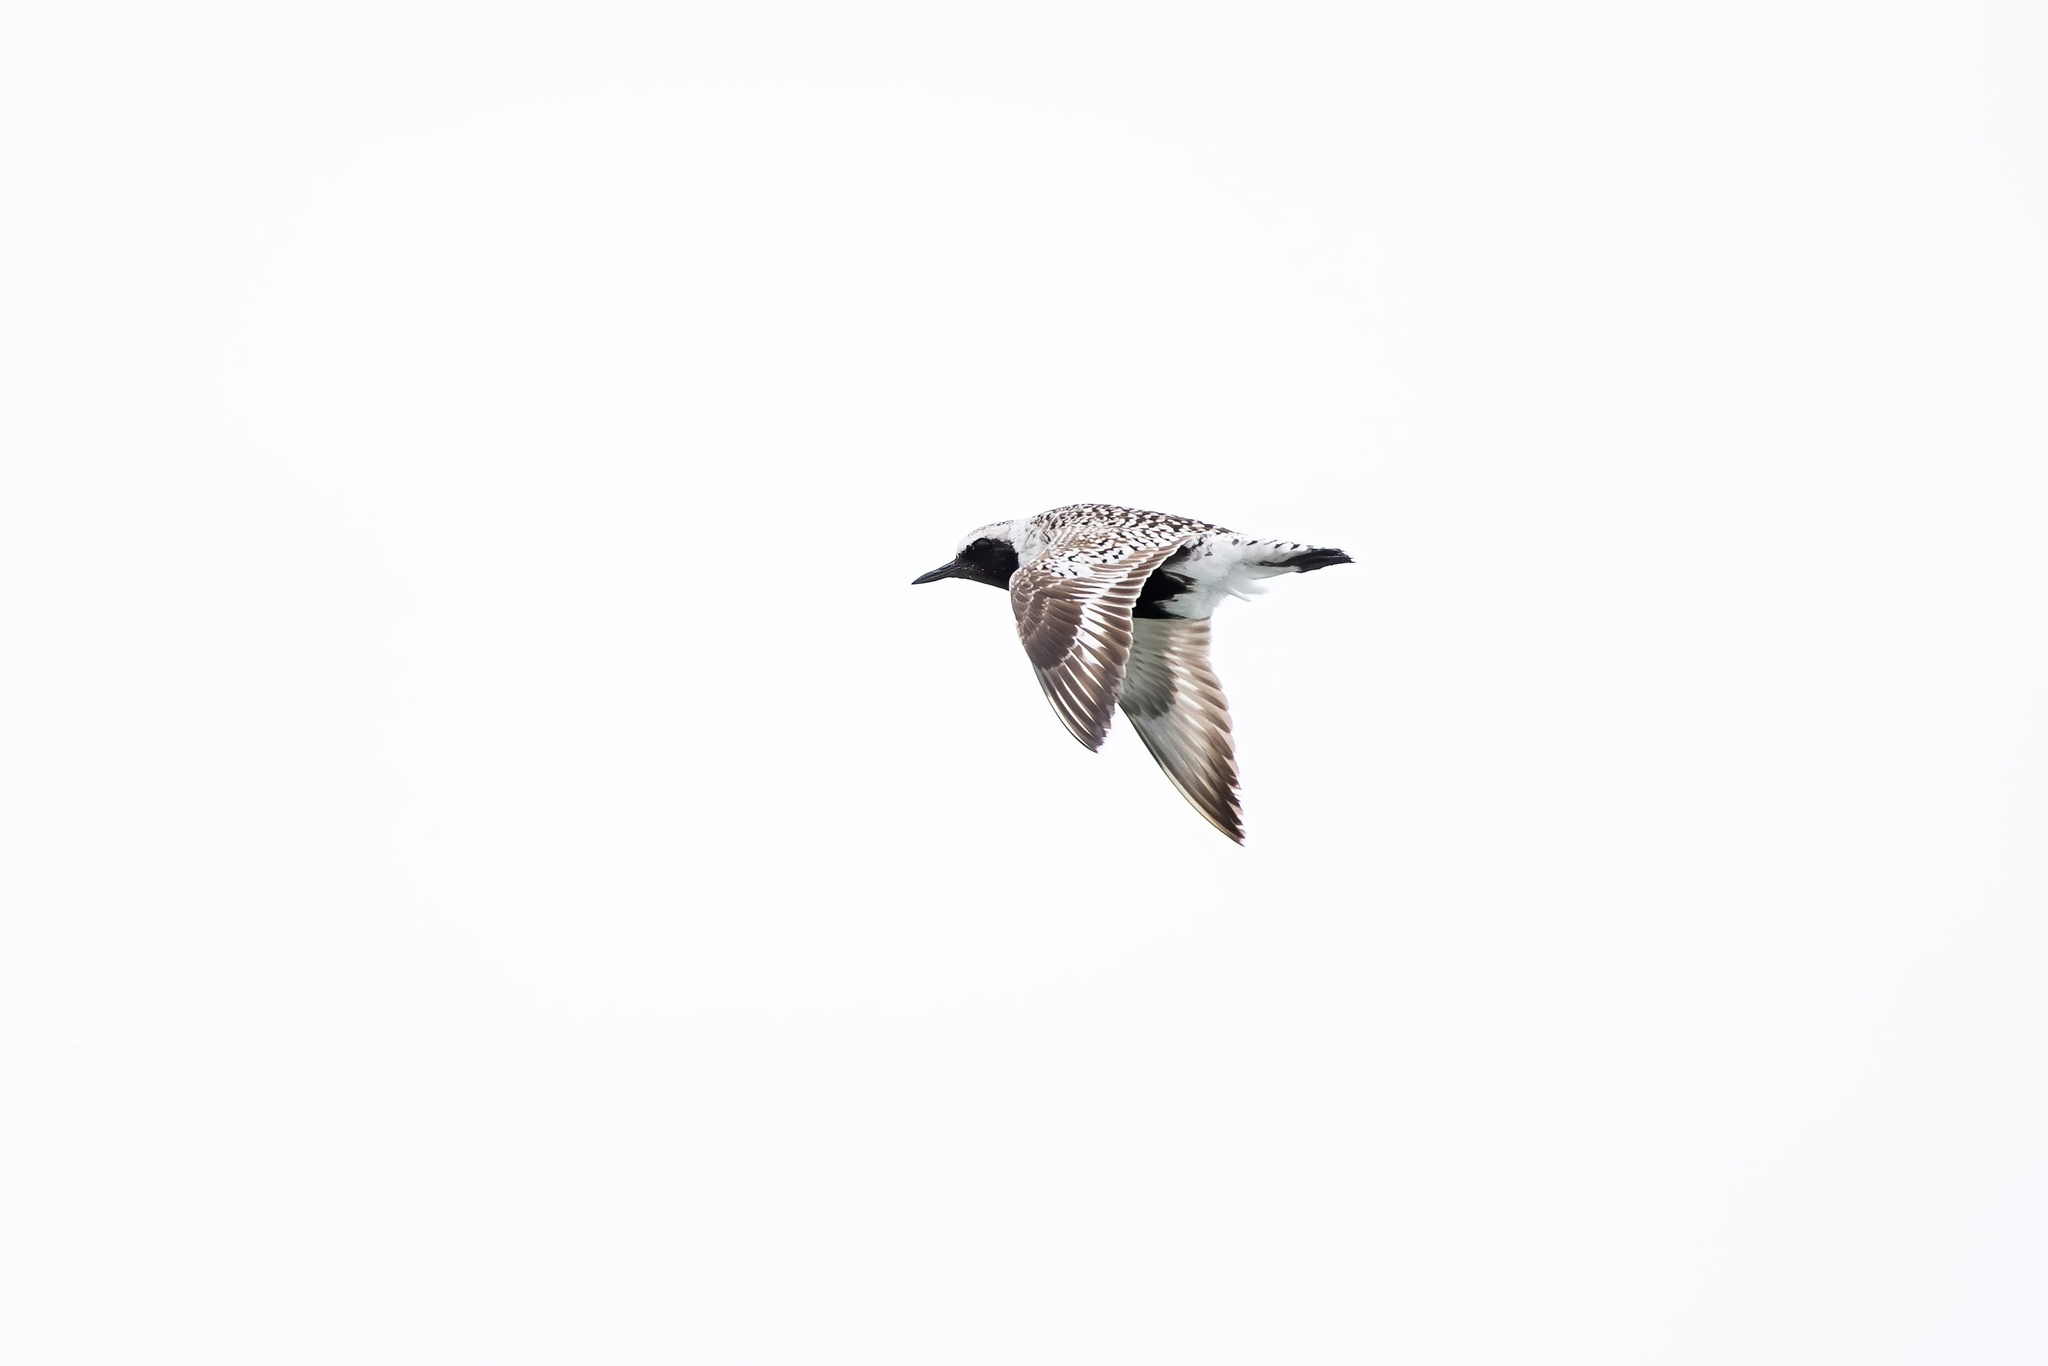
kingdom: Animalia
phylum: Chordata
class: Aves
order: Charadriiformes
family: Charadriidae
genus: Pluvialis
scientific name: Pluvialis squatarola
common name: Grey plover
